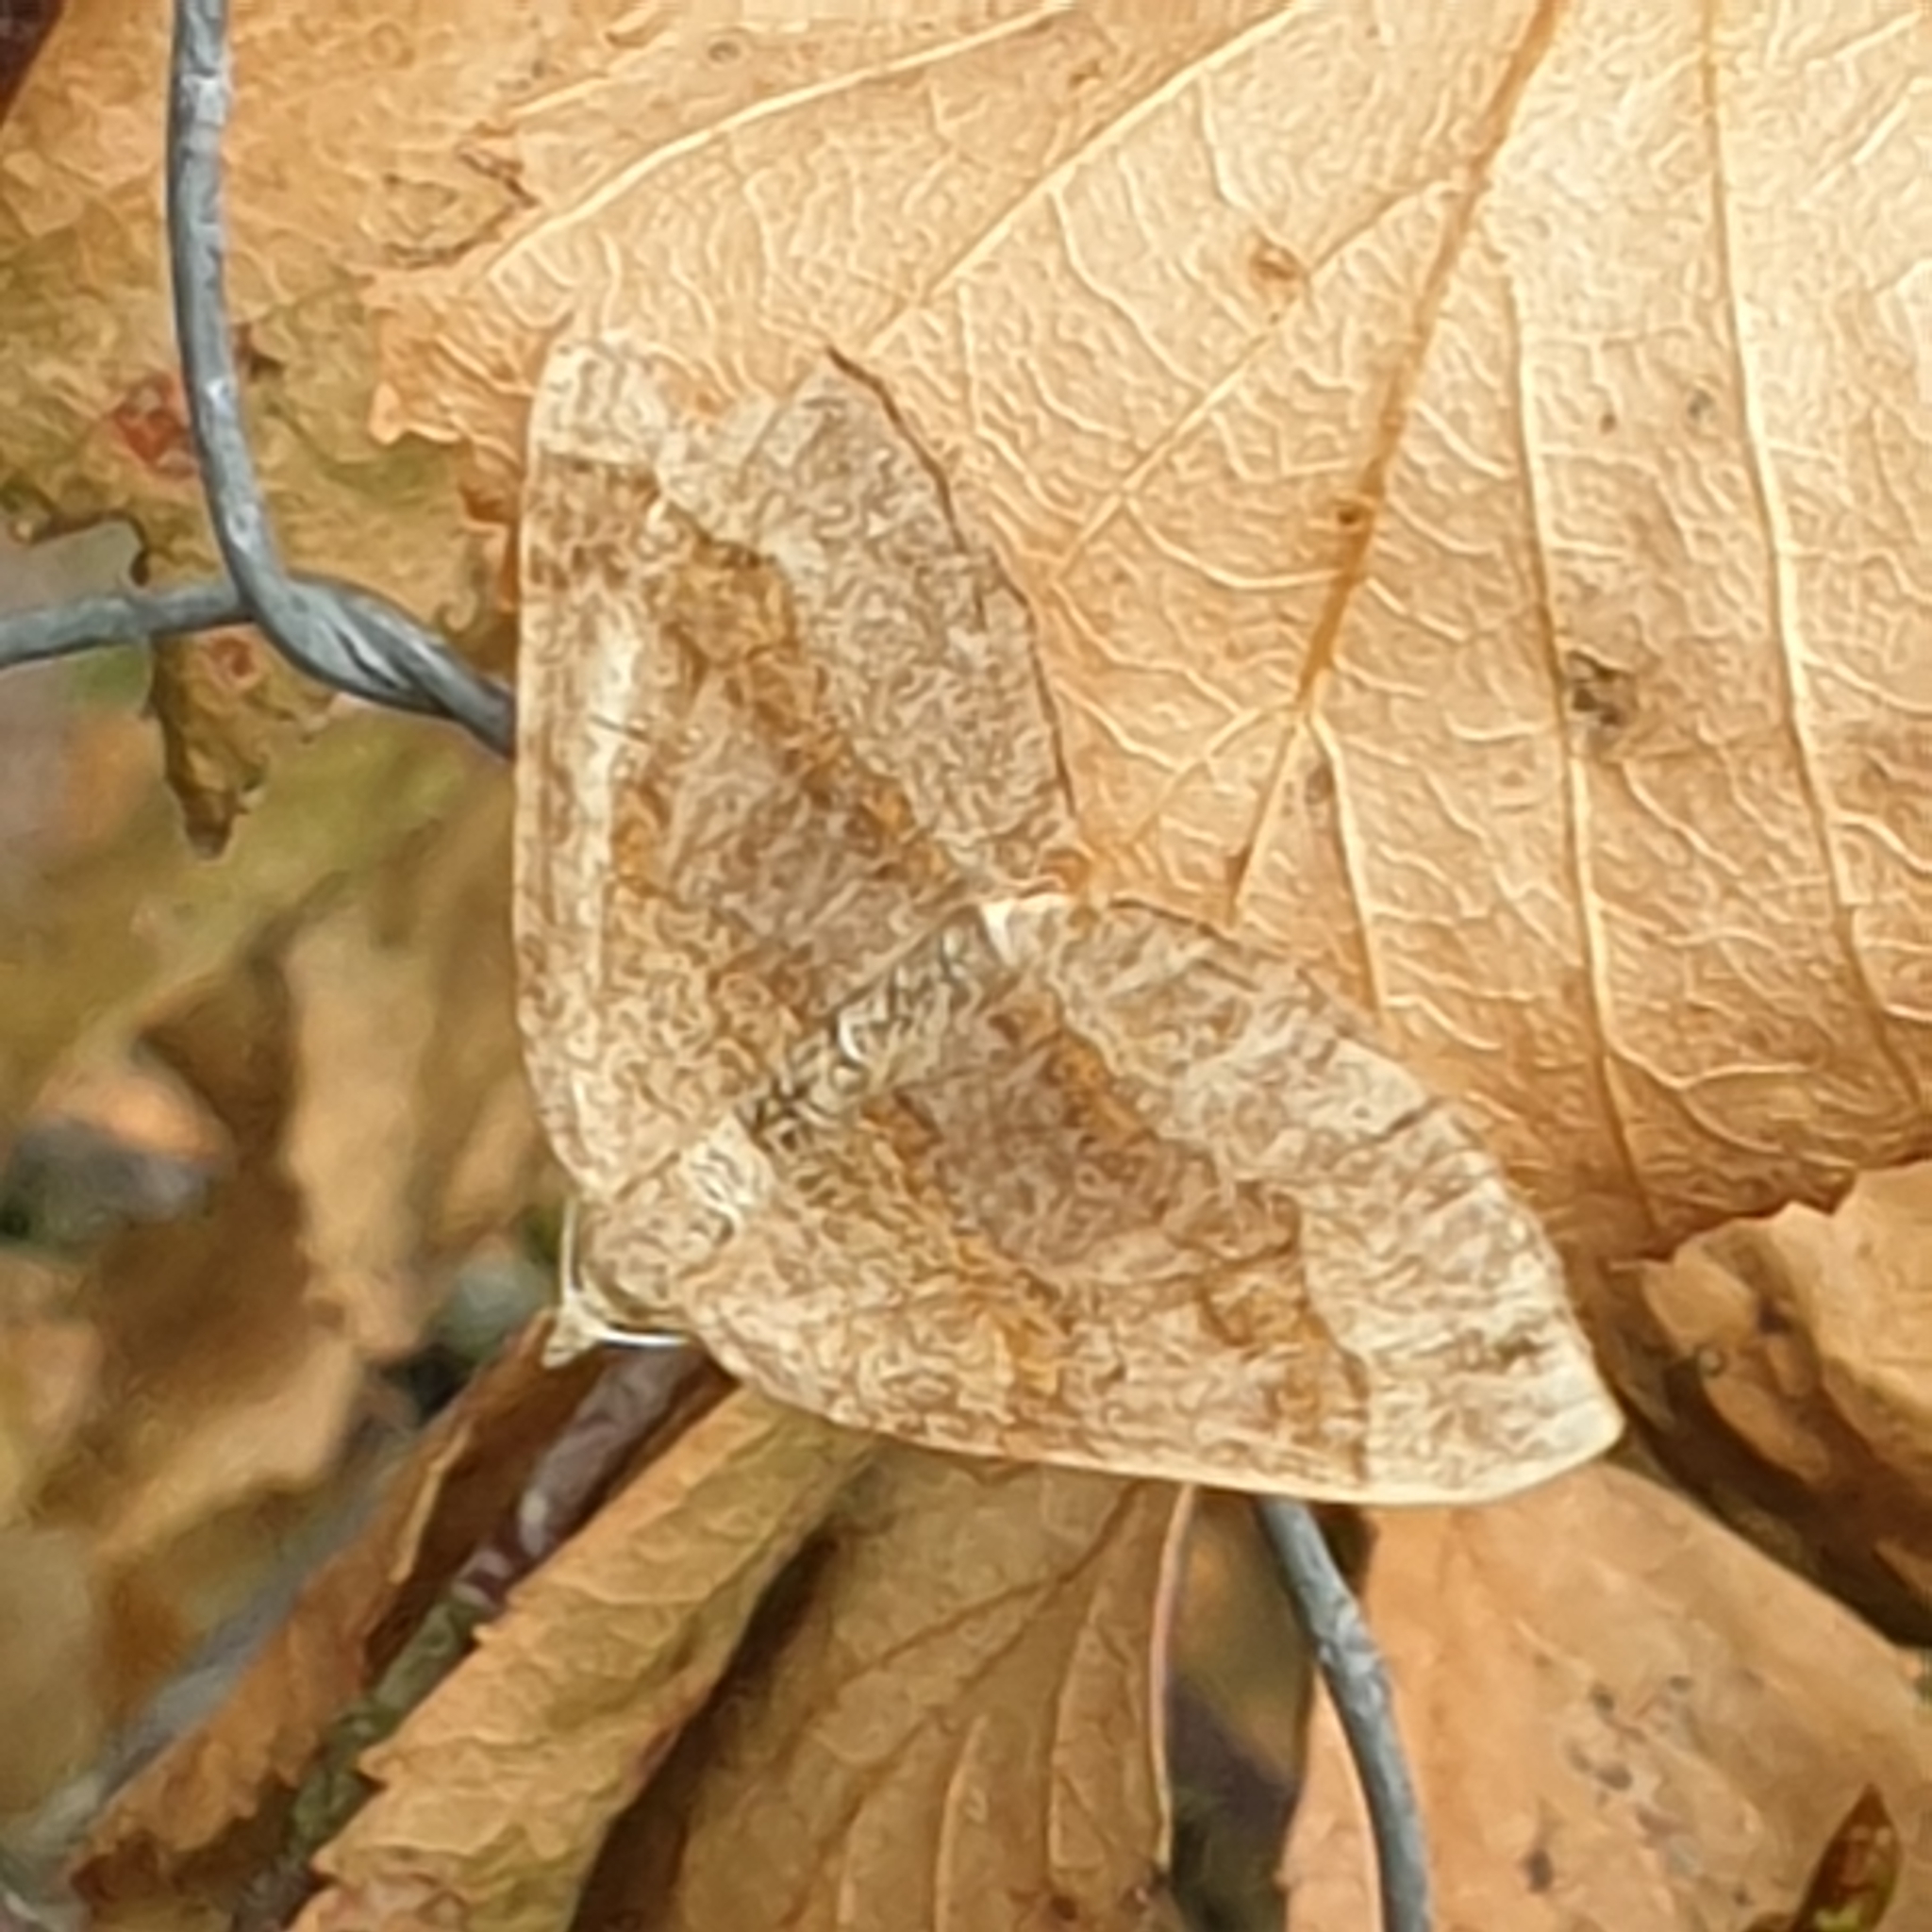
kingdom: Animalia
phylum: Arthropoda
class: Insecta
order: Lepidoptera
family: Geometridae
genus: Scotopteryx
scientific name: Scotopteryx chenopodiata
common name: Shaded broad-bar
